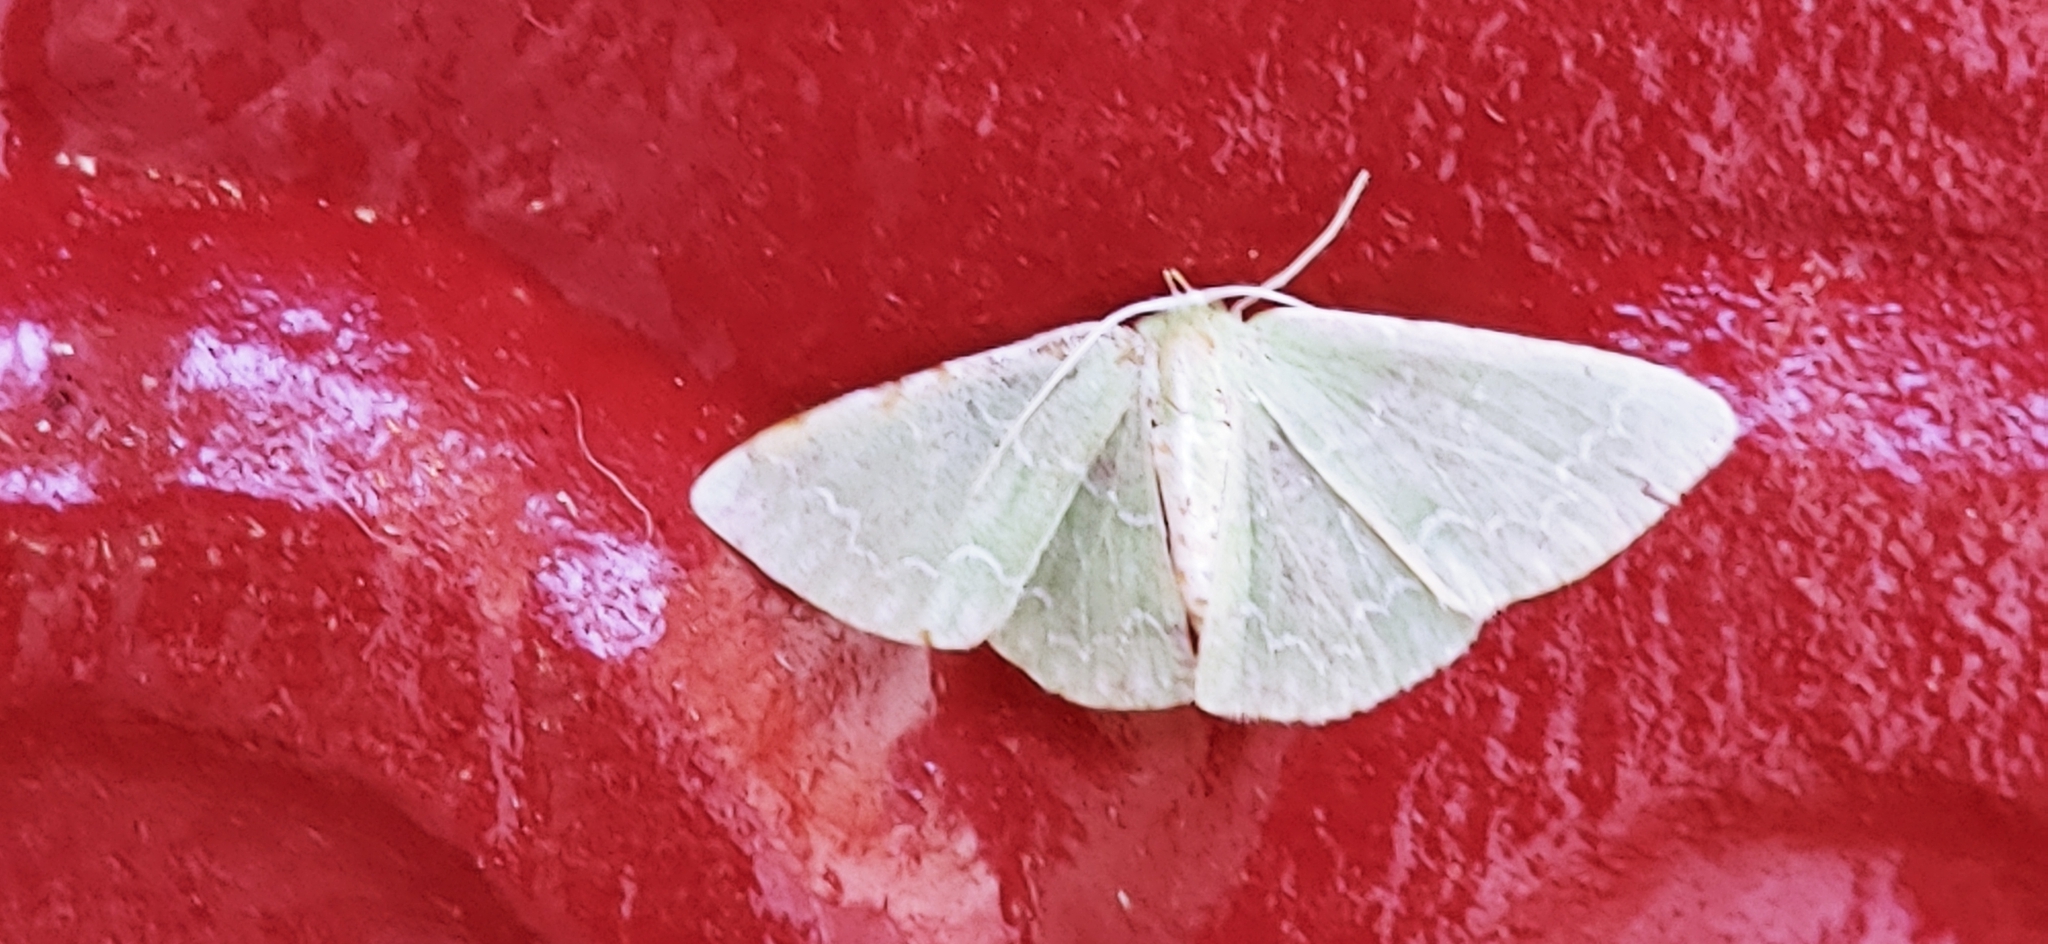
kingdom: Animalia
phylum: Arthropoda
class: Insecta
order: Lepidoptera
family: Geometridae
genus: Synchlora
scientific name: Synchlora frondaria
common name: Southern emerald
